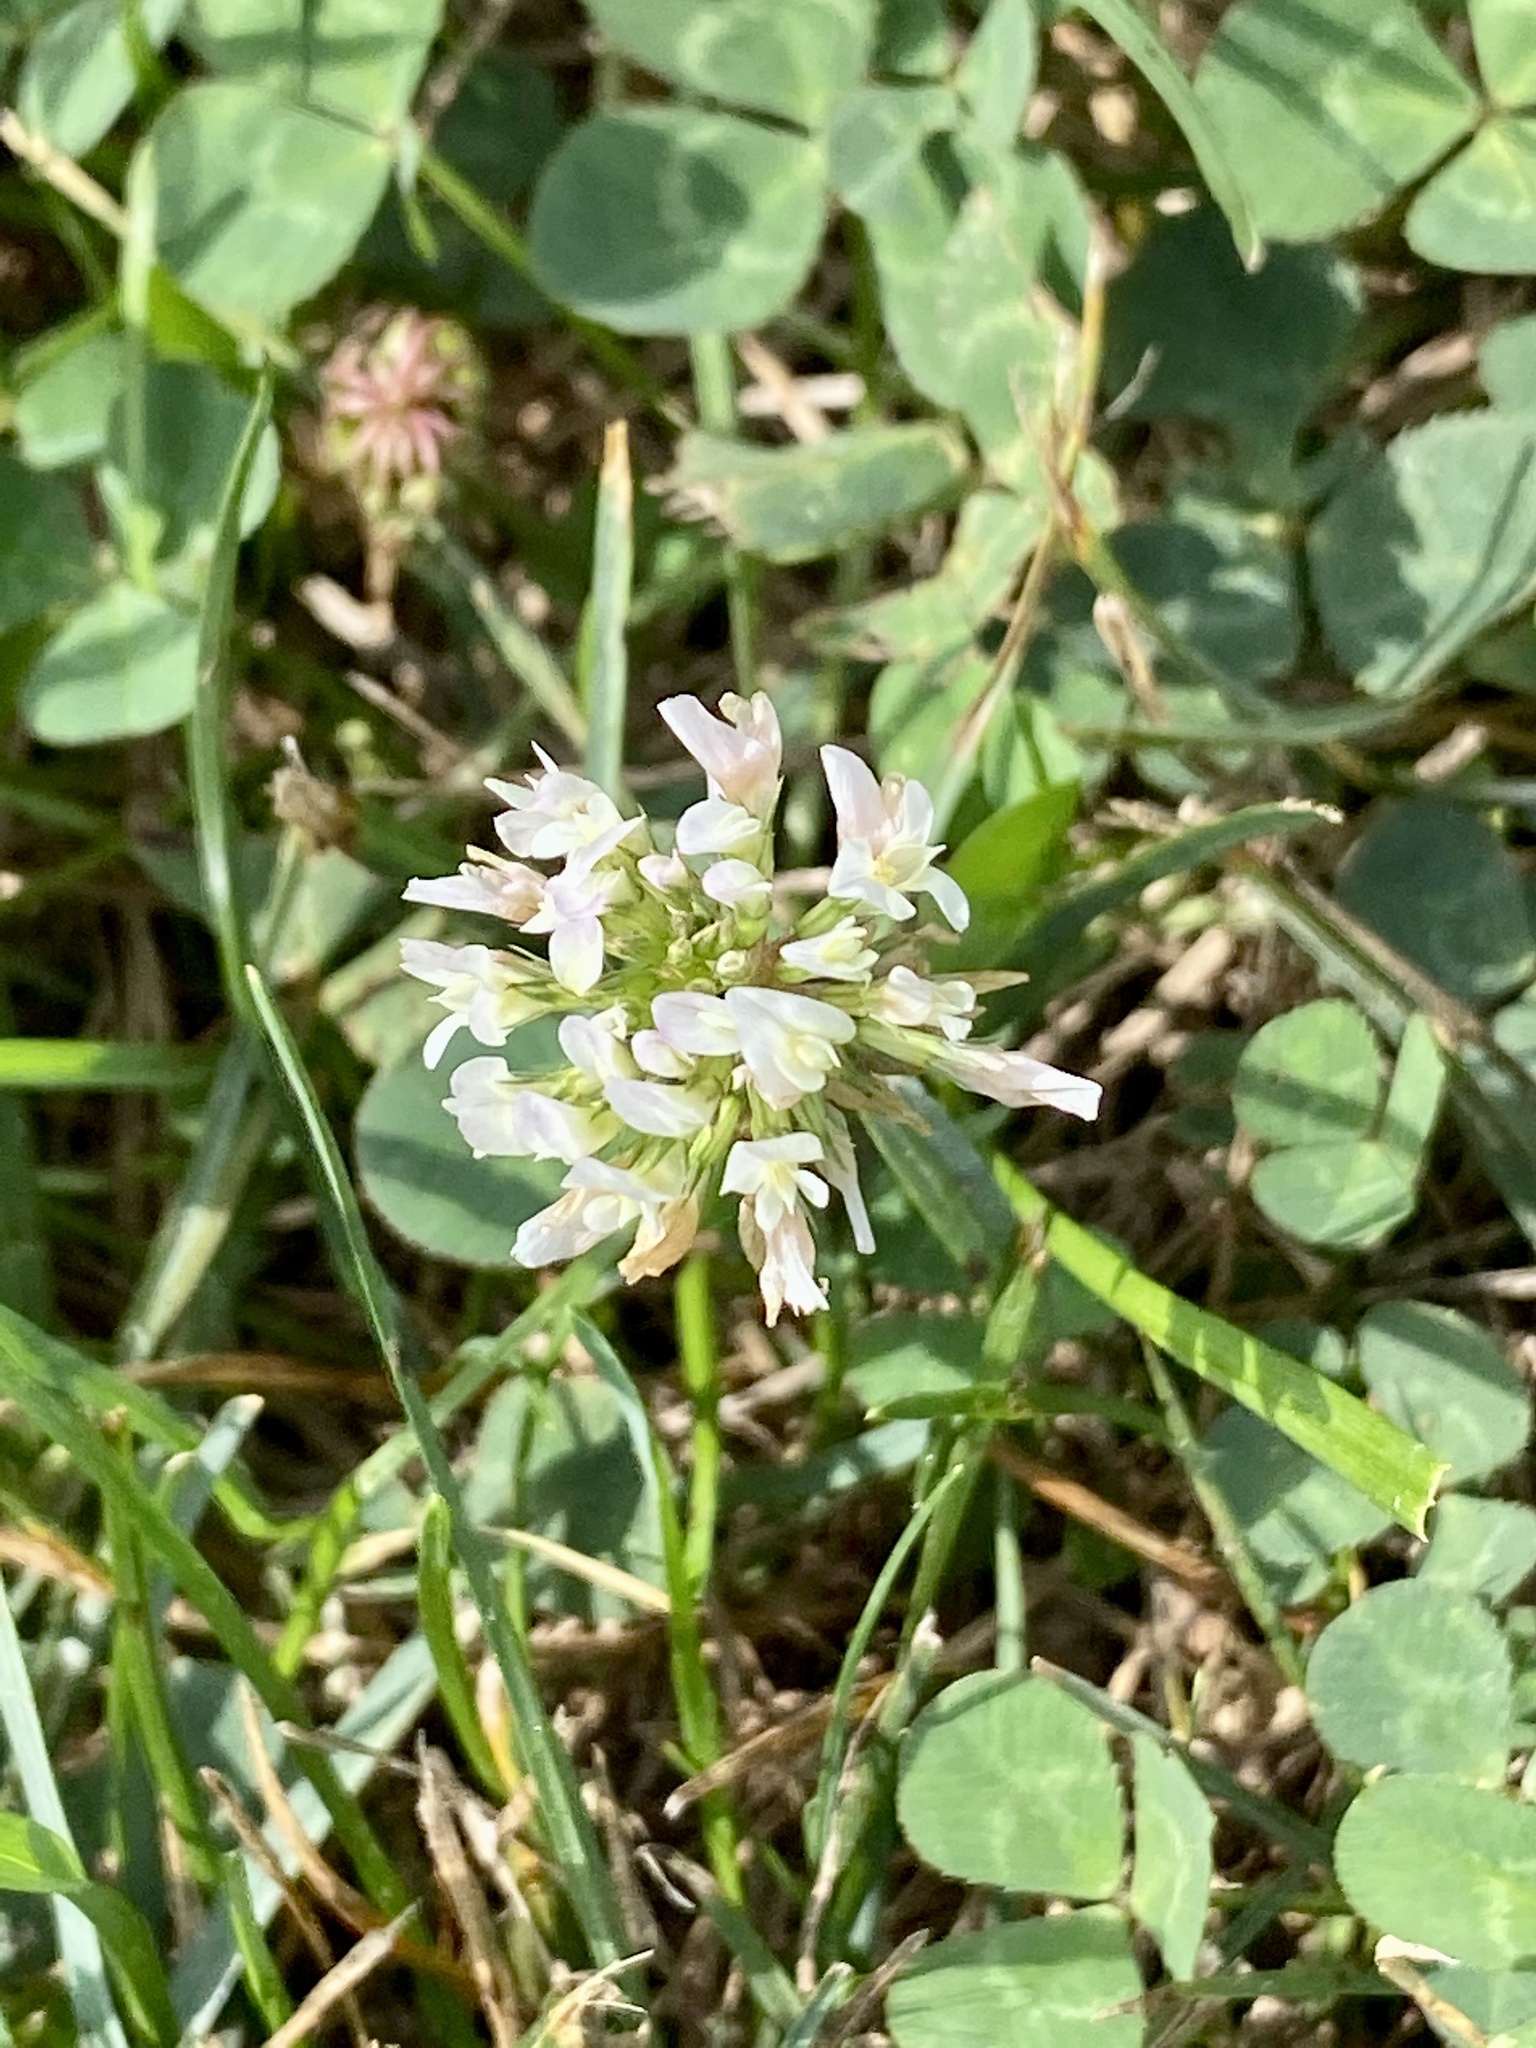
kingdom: Plantae
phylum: Tracheophyta
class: Magnoliopsida
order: Fabales
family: Fabaceae
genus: Trifolium
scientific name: Trifolium repens
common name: White clover
